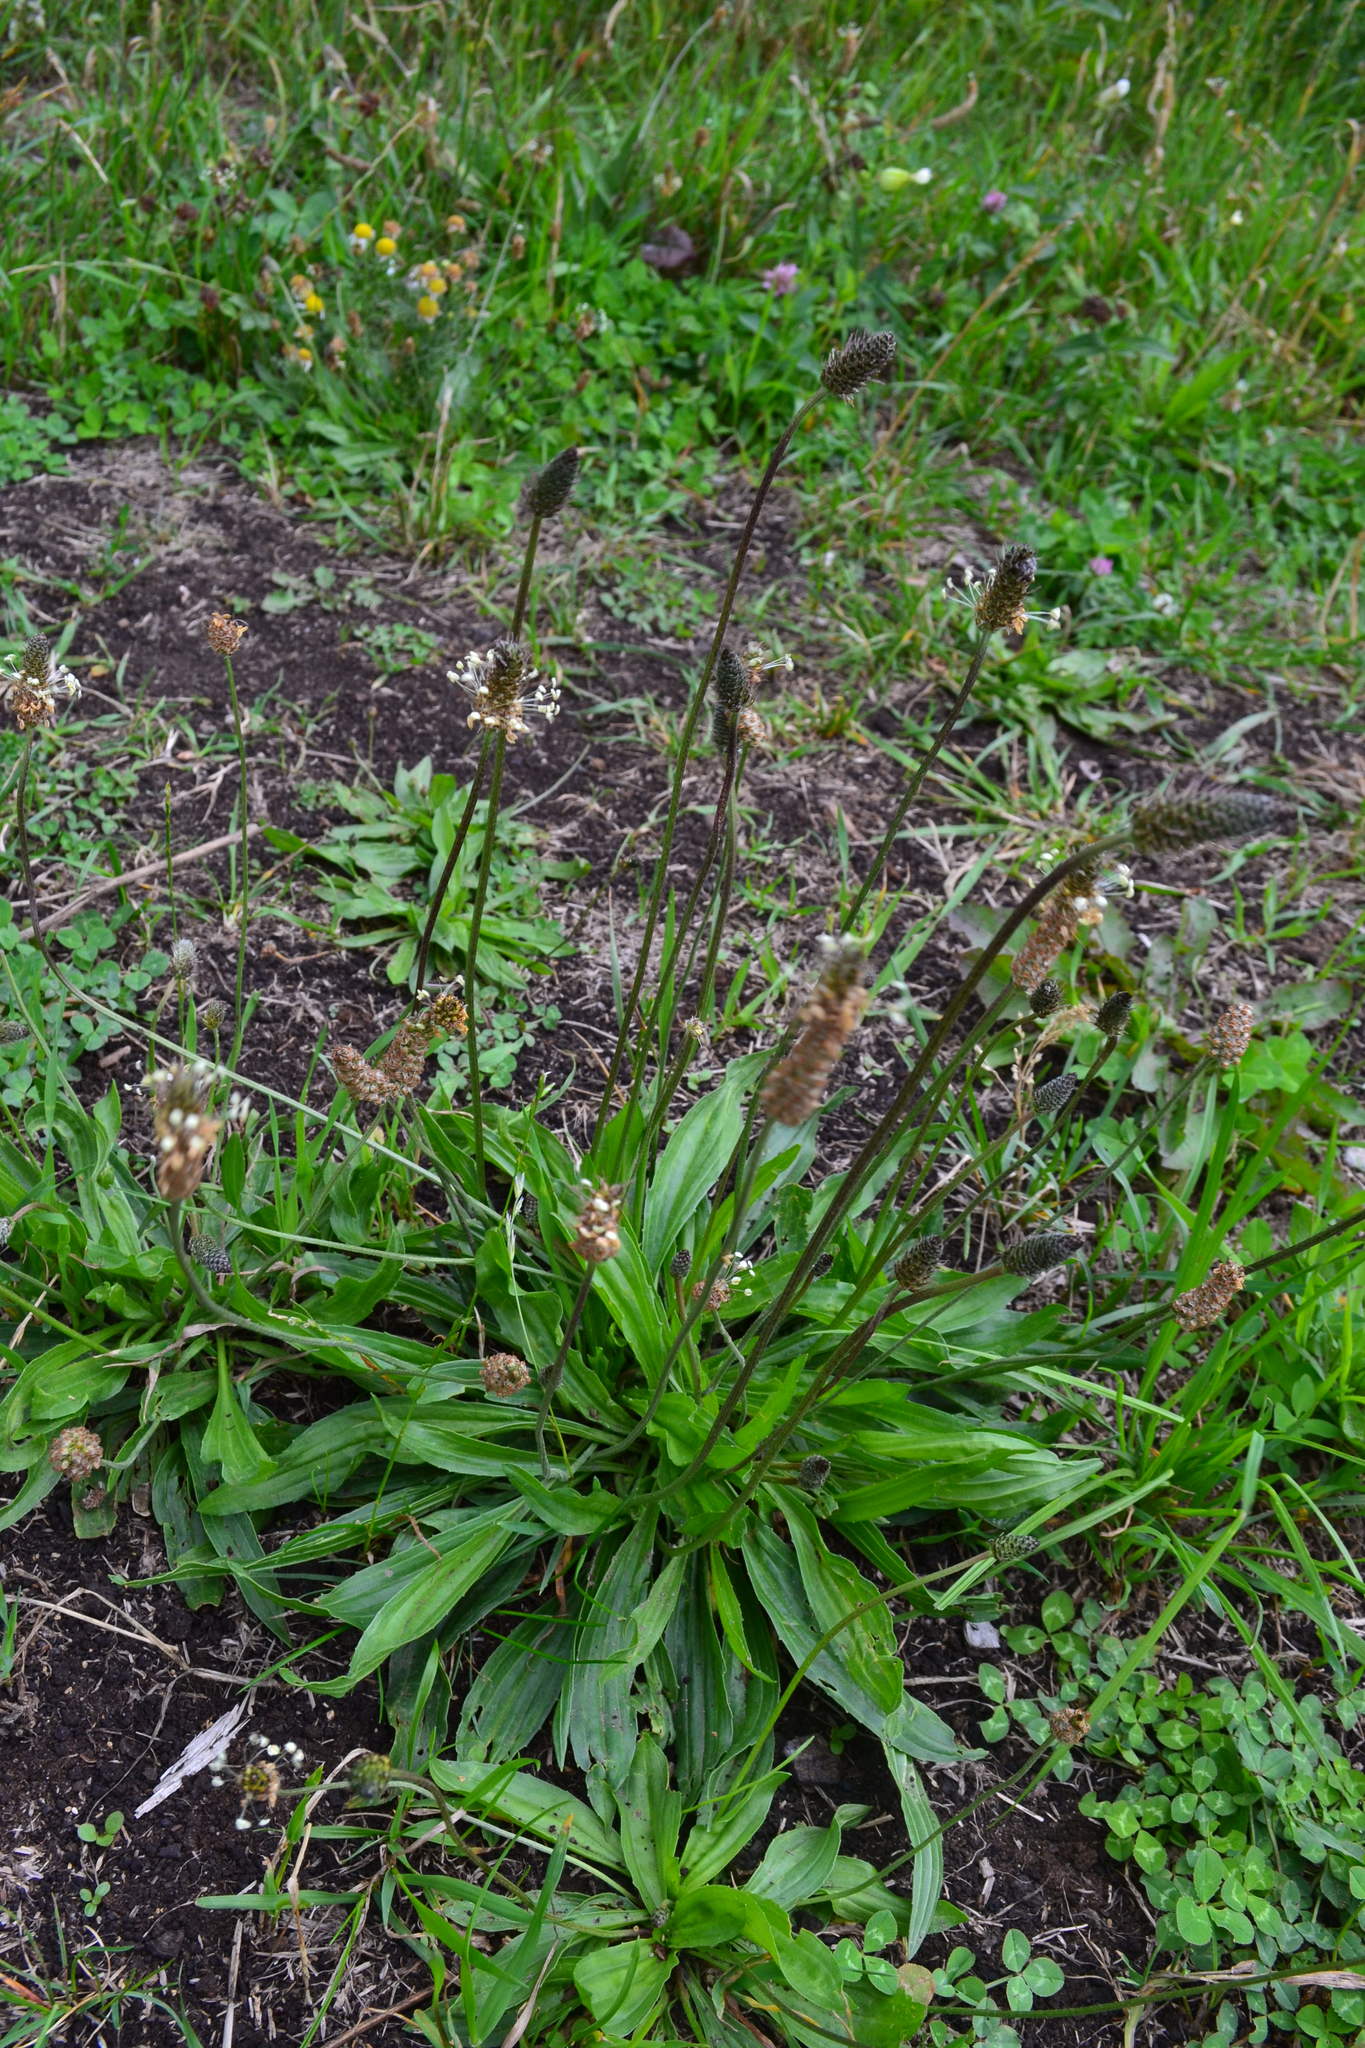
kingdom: Plantae
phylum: Tracheophyta
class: Magnoliopsida
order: Lamiales
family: Plantaginaceae
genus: Plantago
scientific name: Plantago lanceolata
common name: Ribwort plantain
